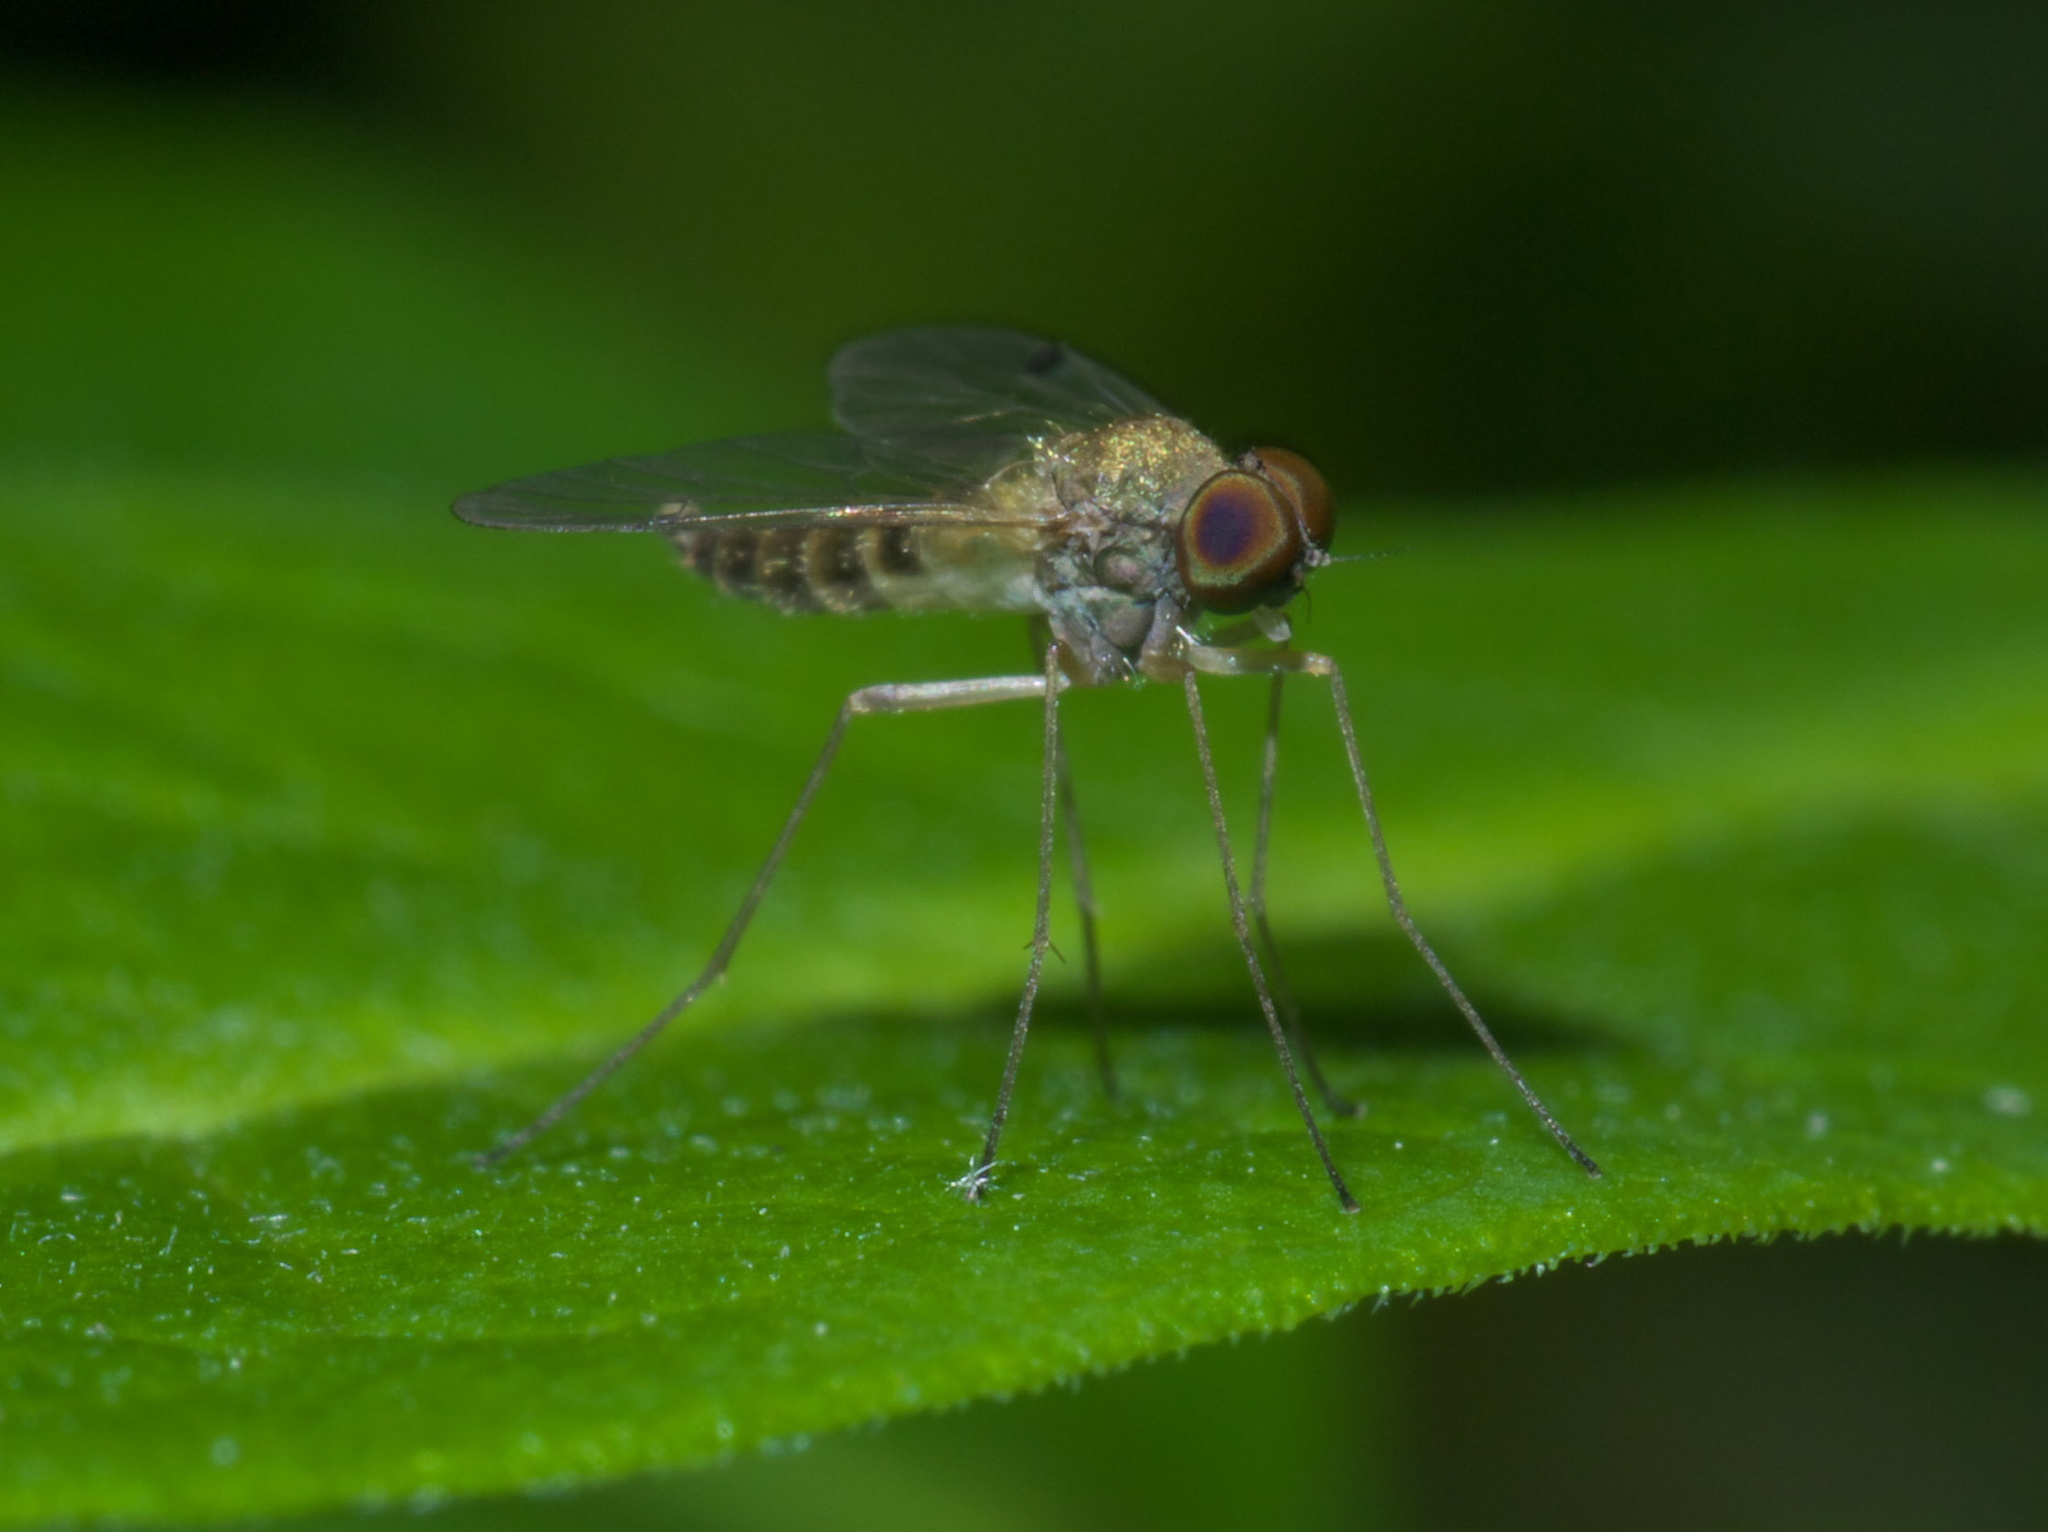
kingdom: Animalia
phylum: Arthropoda
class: Insecta
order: Diptera
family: Rhagionidae
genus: Chrysopilus
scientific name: Chrysopilus modestus
